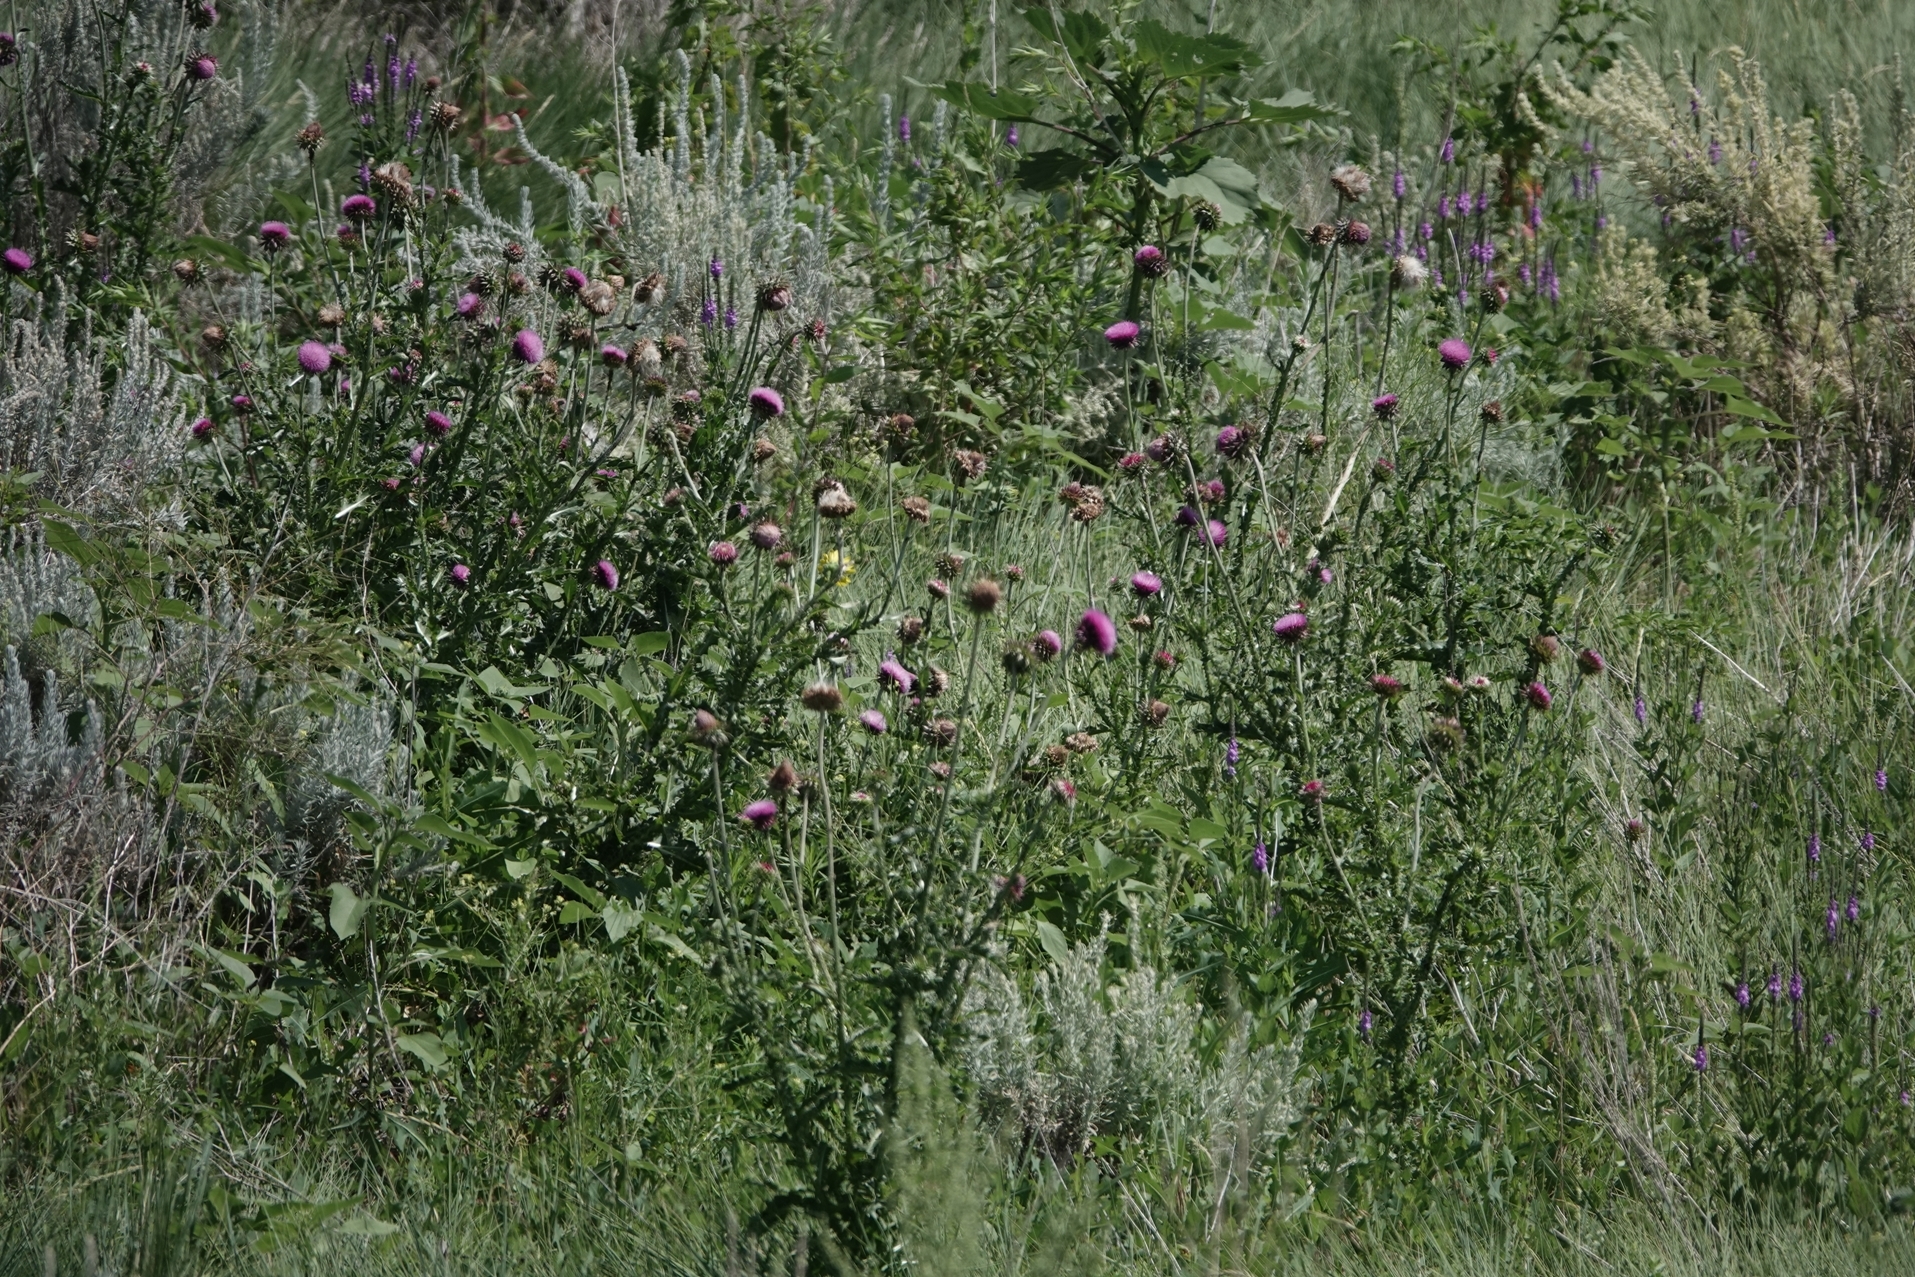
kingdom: Plantae
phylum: Tracheophyta
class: Magnoliopsida
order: Asterales
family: Asteraceae
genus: Carduus
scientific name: Carduus nutans
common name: Musk thistle
